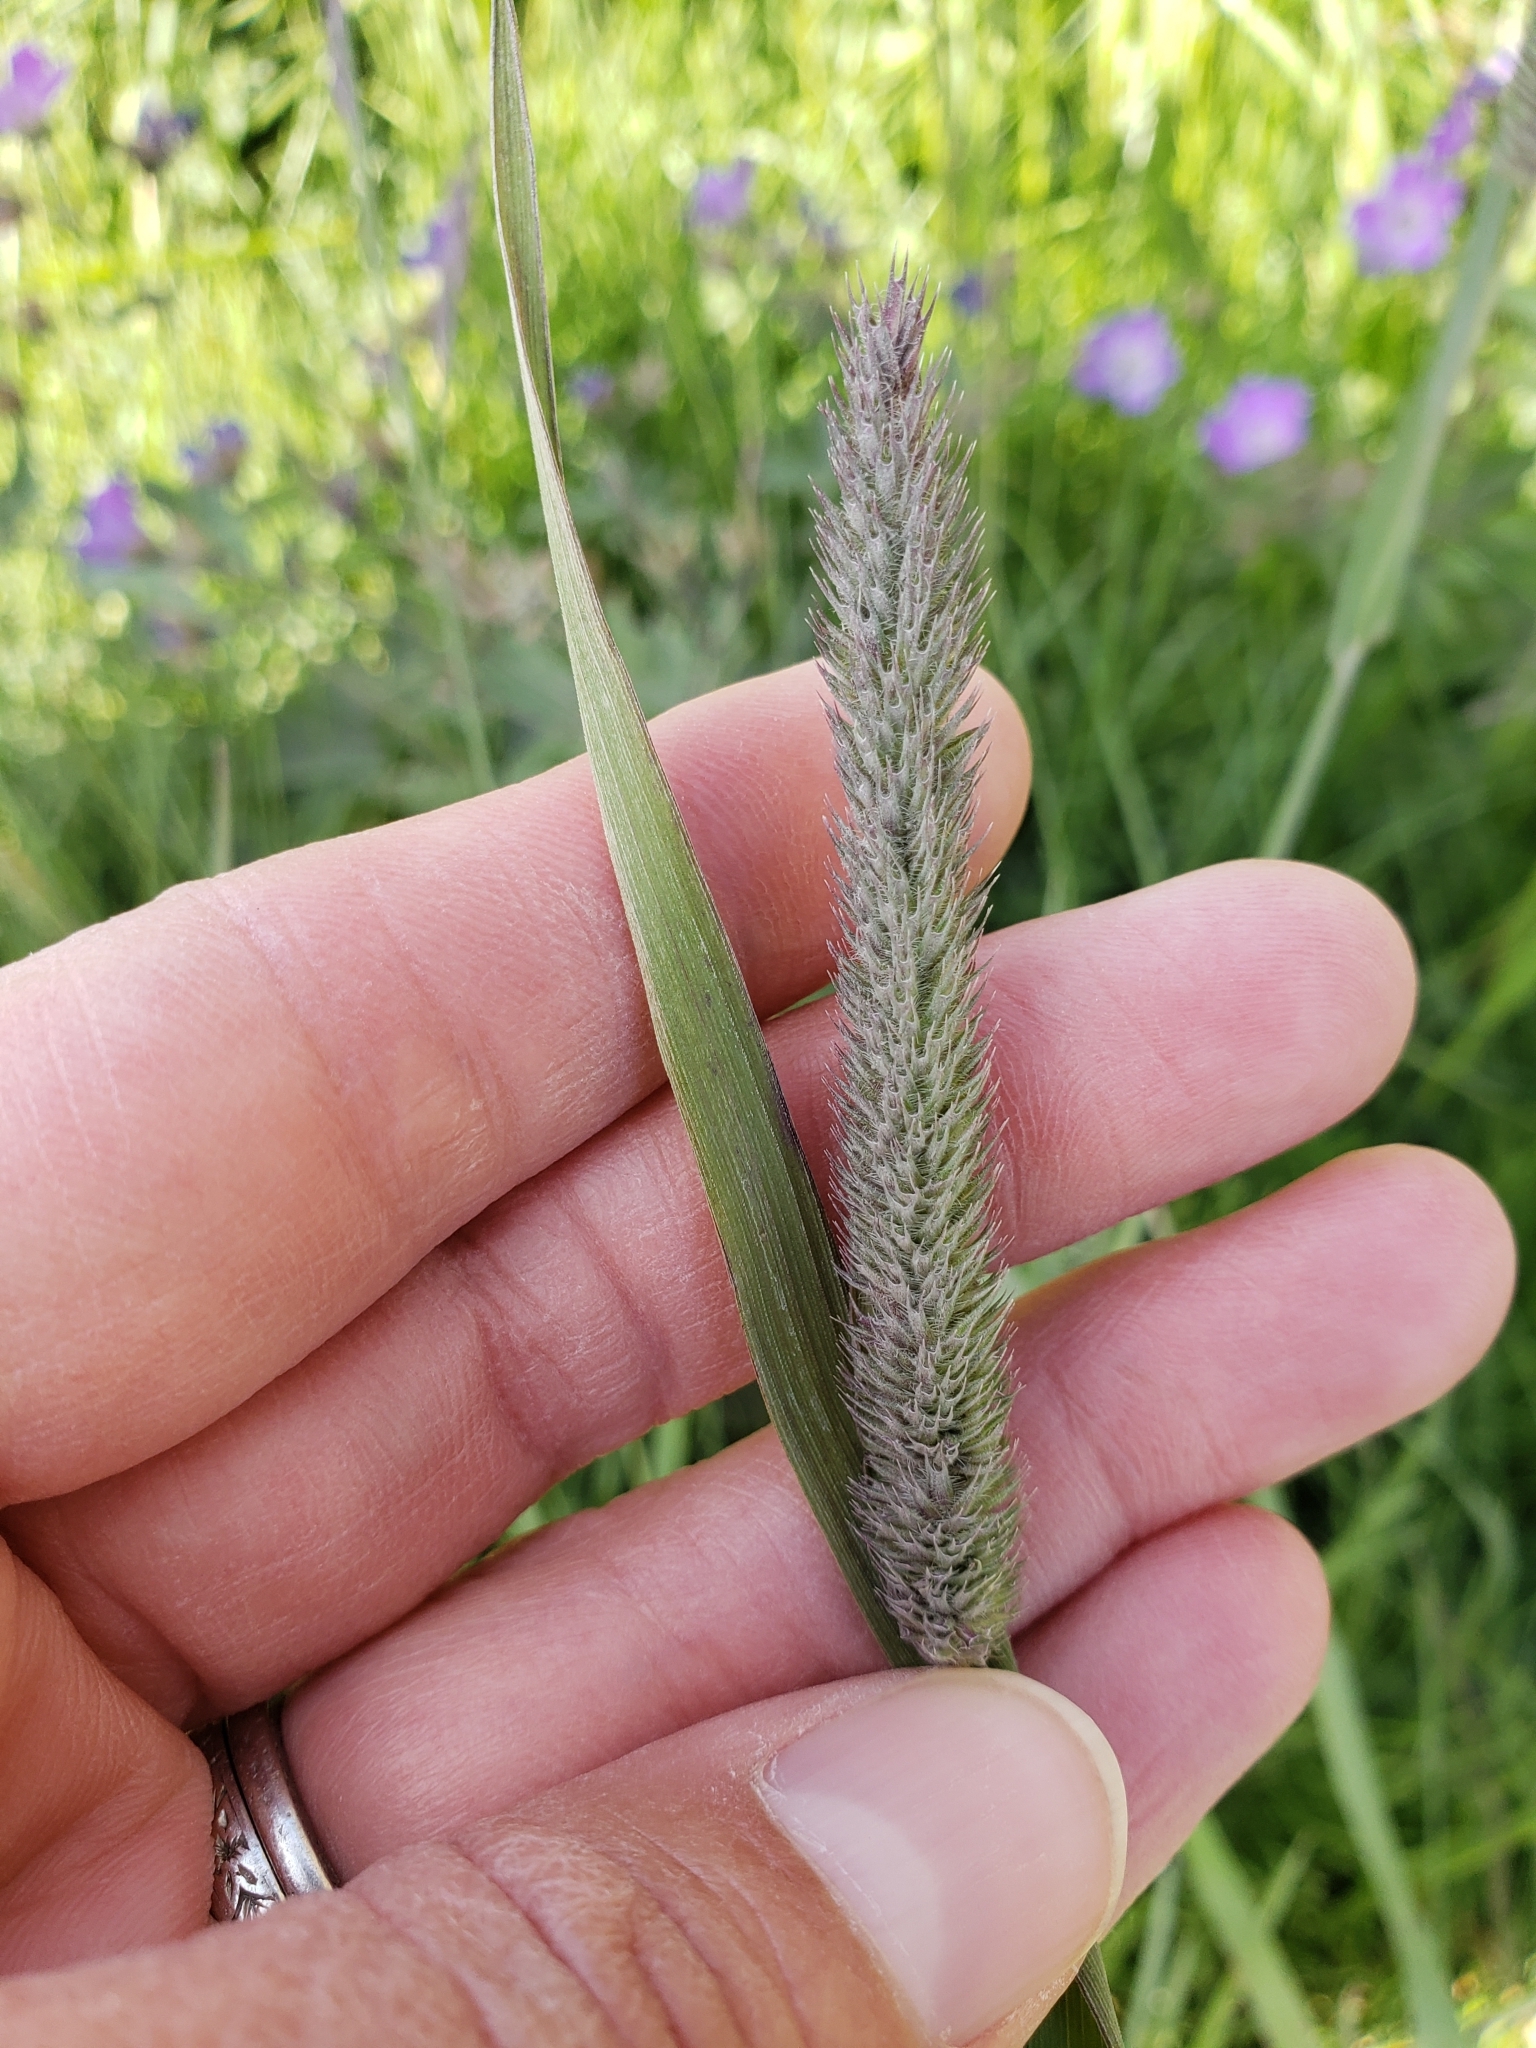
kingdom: Plantae
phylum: Tracheophyta
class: Liliopsida
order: Poales
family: Poaceae
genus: Phleum
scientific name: Phleum pratense
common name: Timothy grass
